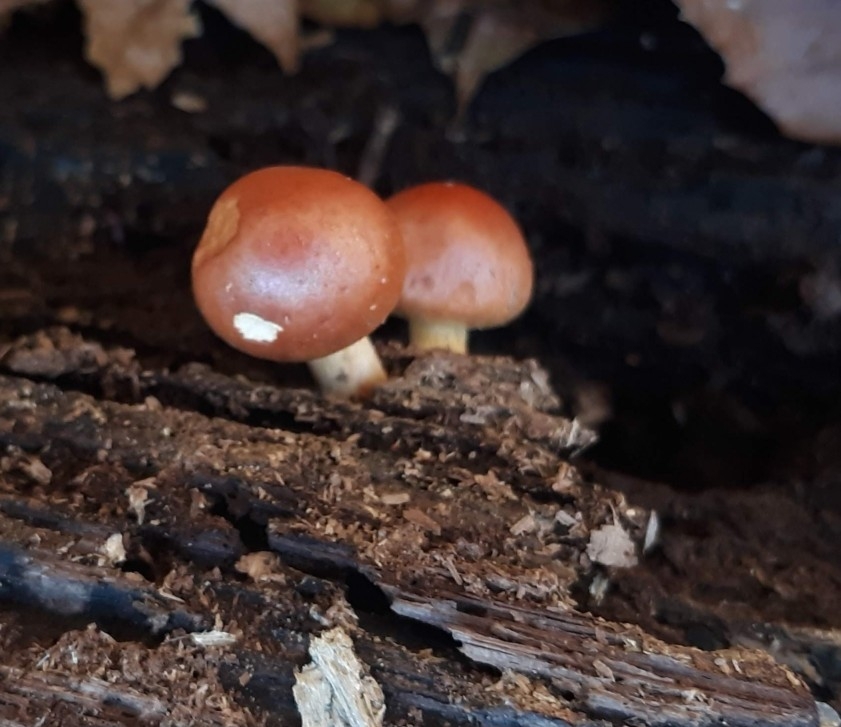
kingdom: Fungi
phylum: Basidiomycota
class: Agaricomycetes
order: Agaricales
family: Strophariaceae
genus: Hypholoma
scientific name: Hypholoma lateritium
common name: Brick caps
